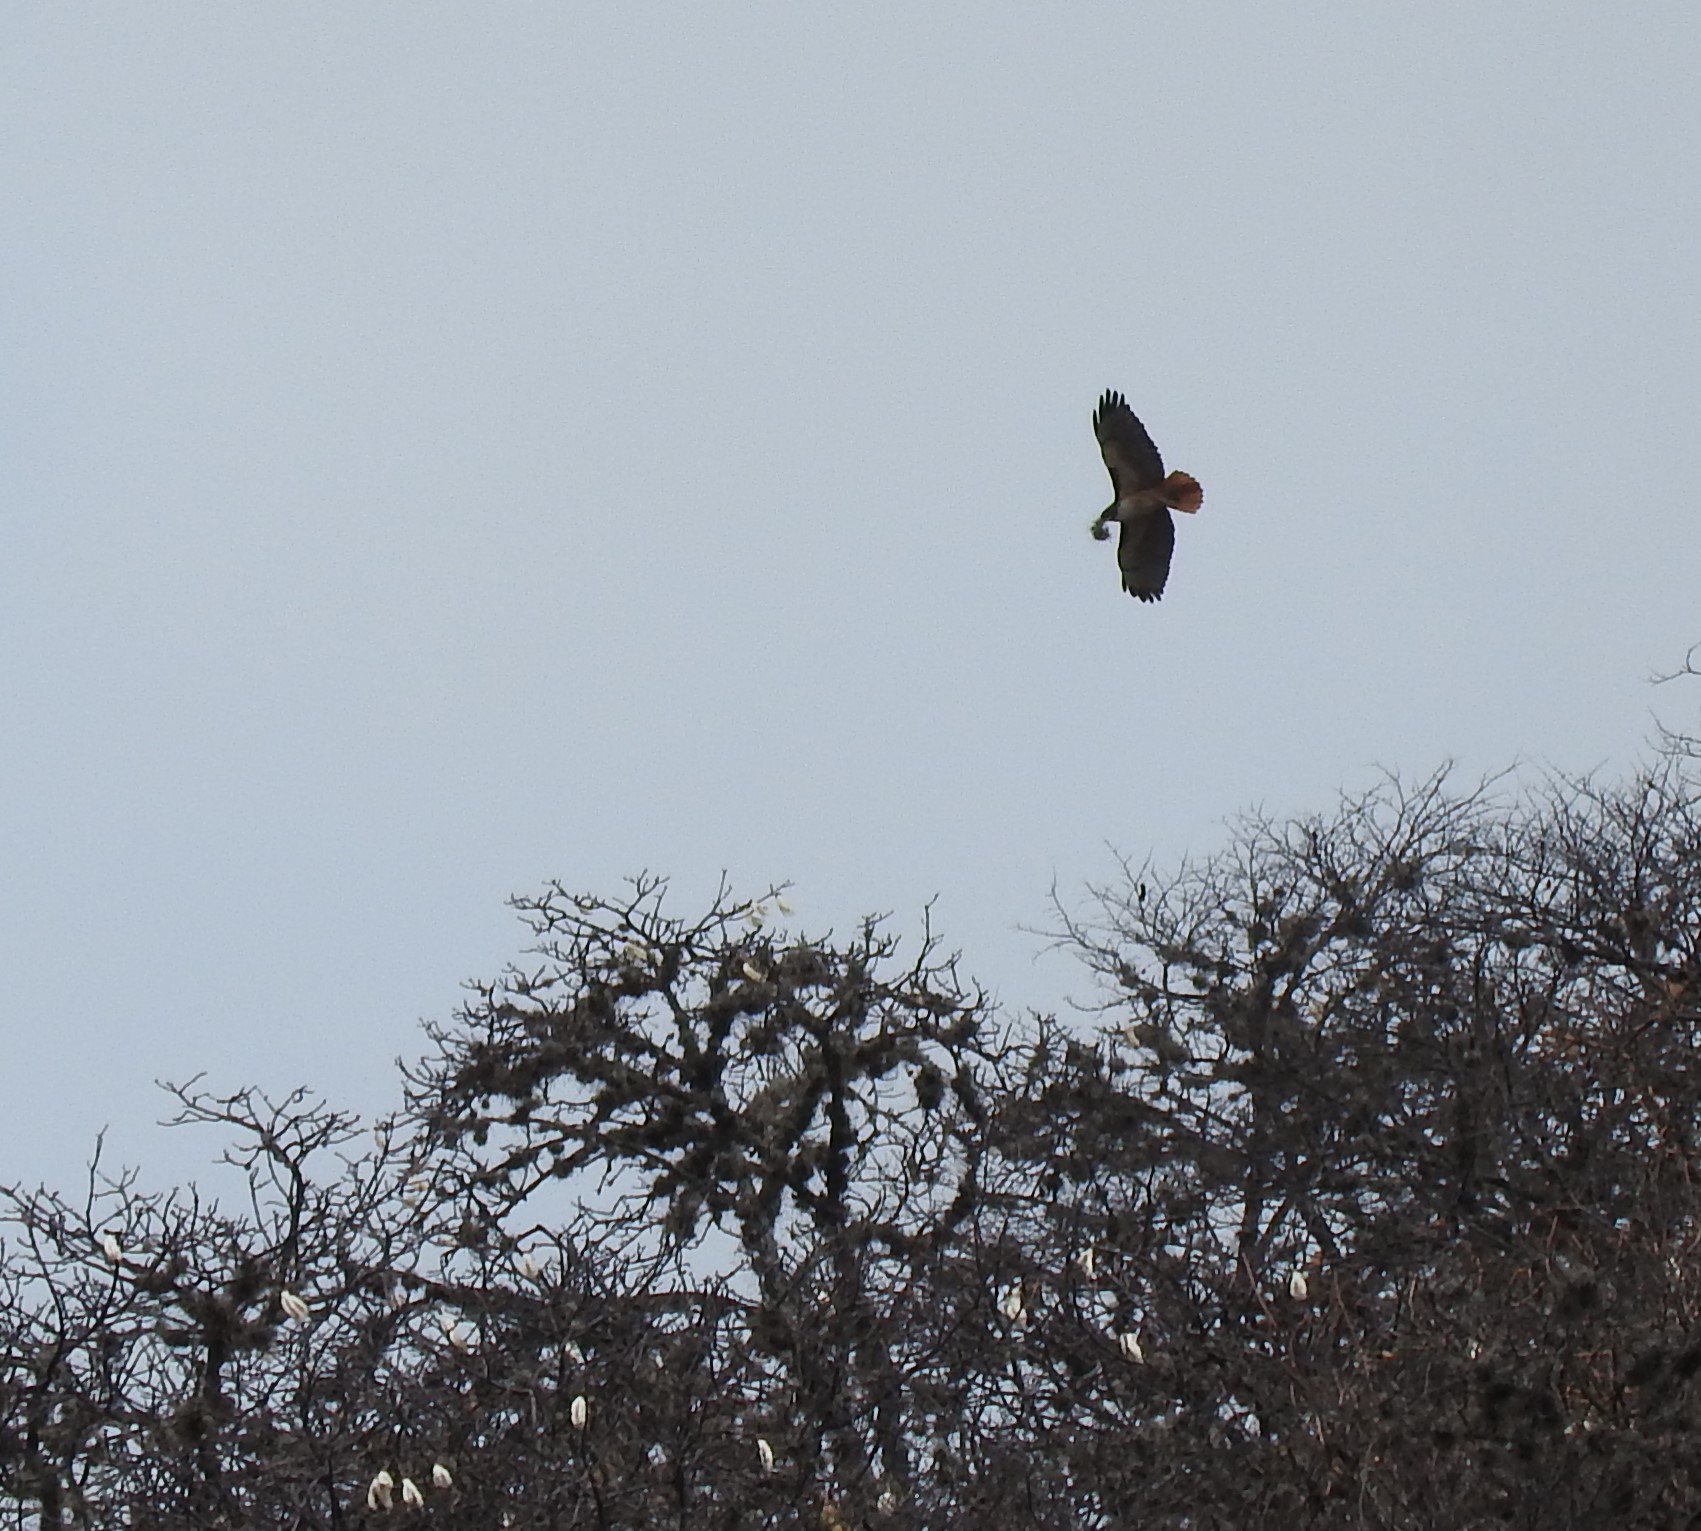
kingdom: Animalia
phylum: Chordata
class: Aves
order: Accipitriformes
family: Accipitridae
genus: Buteo
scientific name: Buteo jamaicensis
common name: Red-tailed hawk
